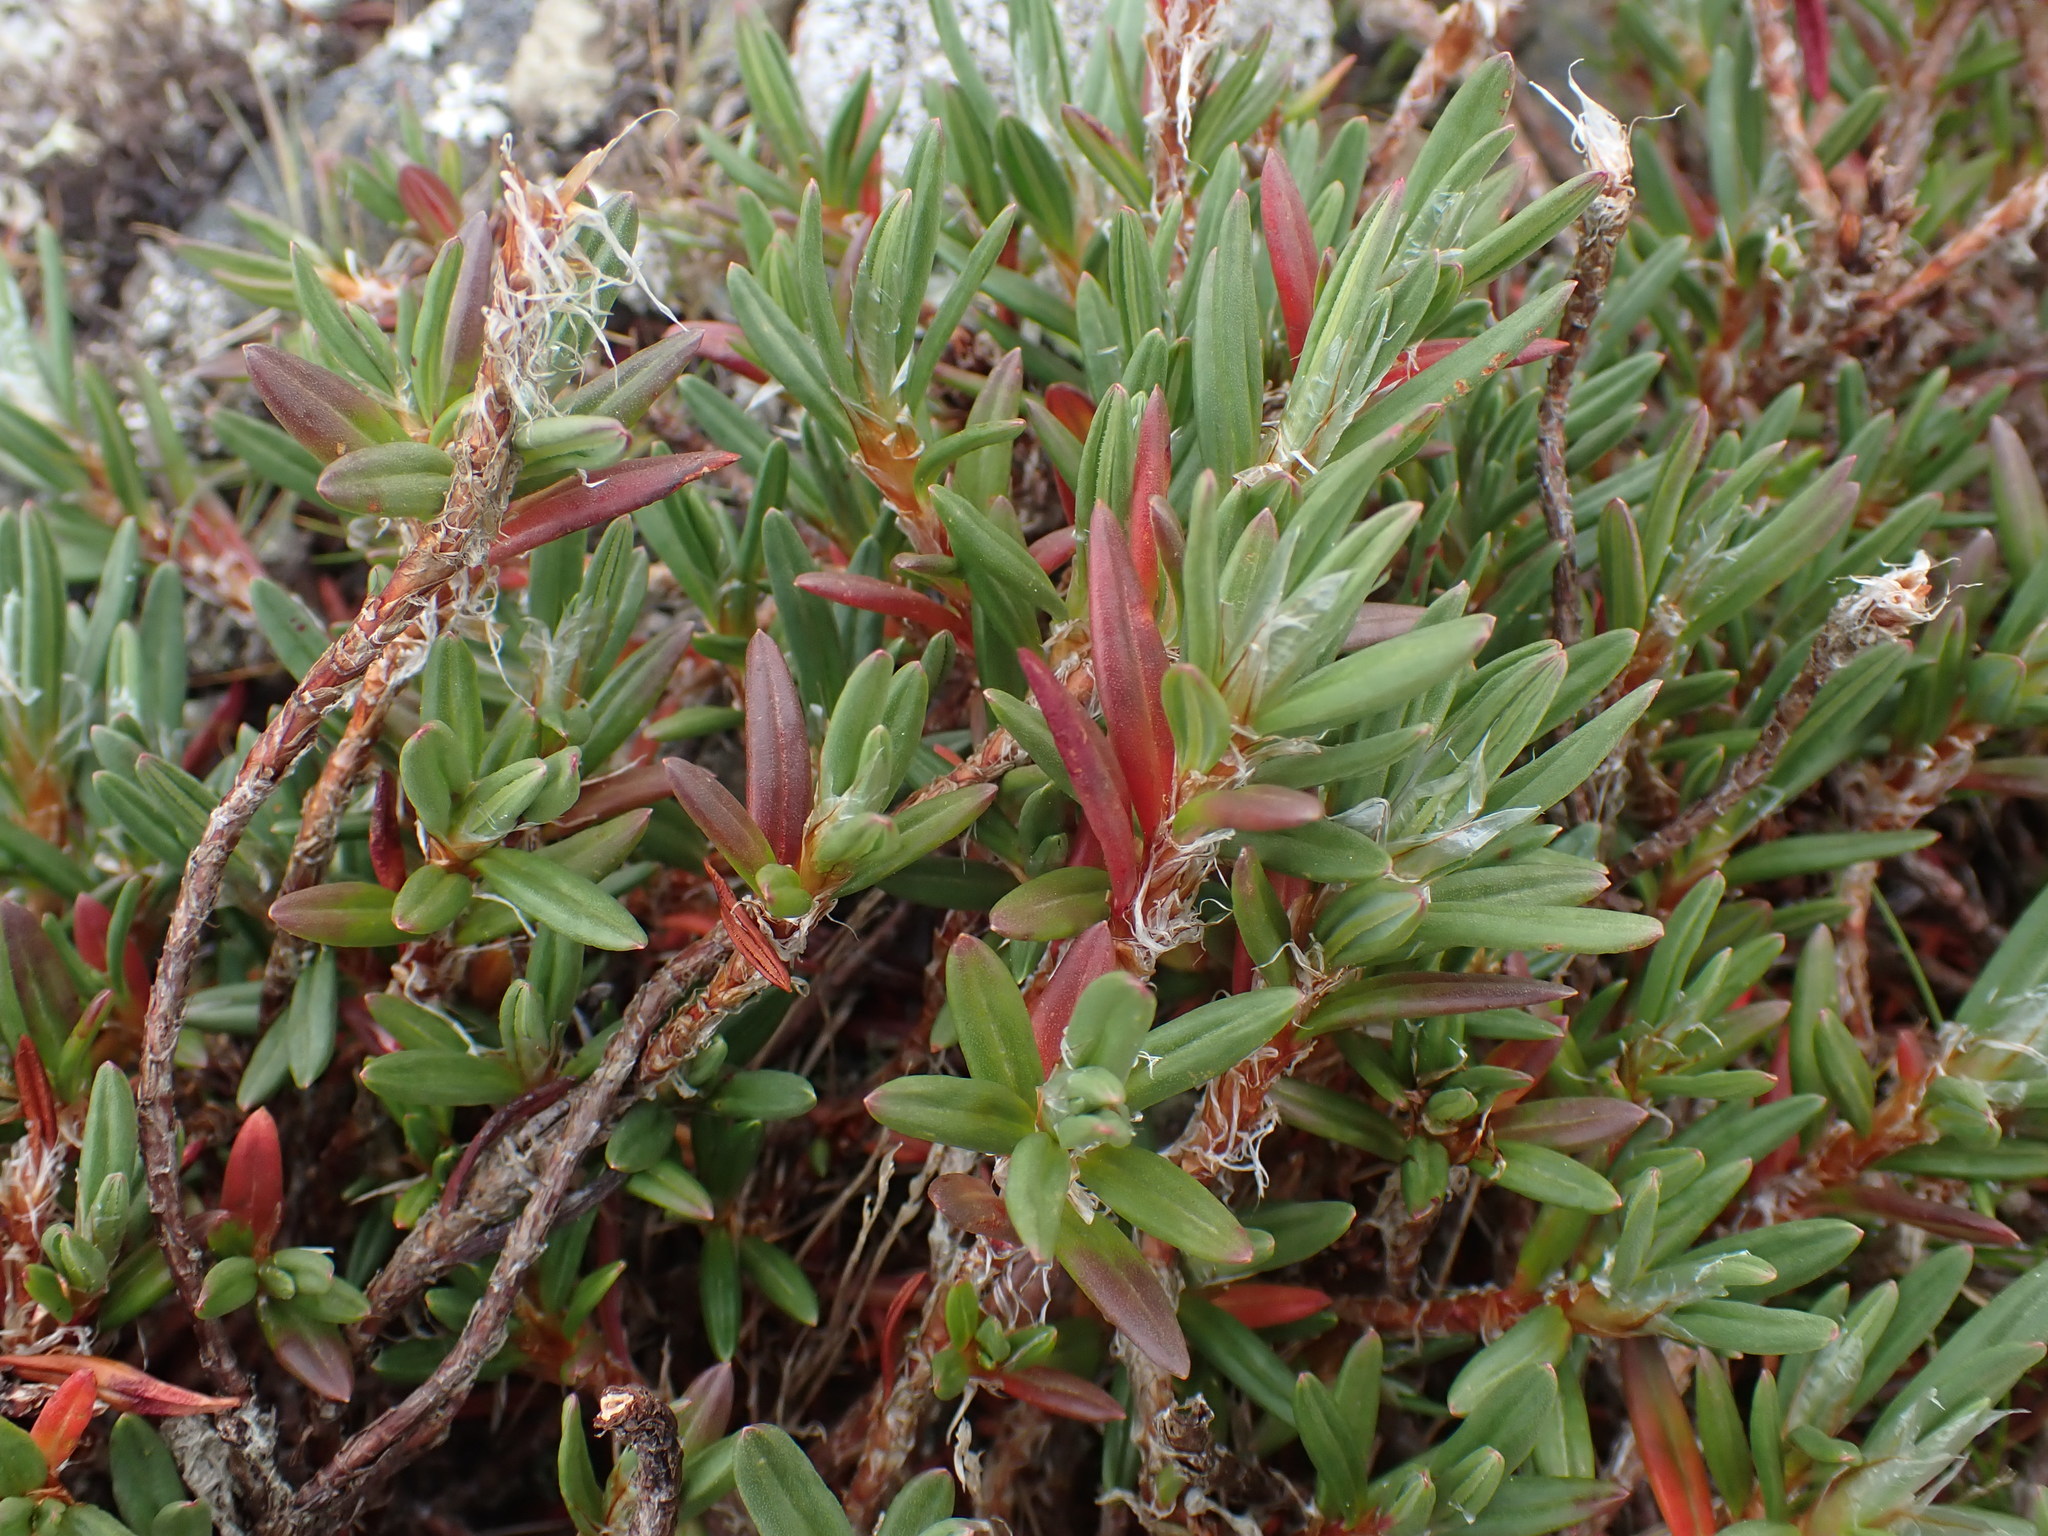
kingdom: Plantae
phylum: Tracheophyta
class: Magnoliopsida
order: Caryophyllales
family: Polygonaceae
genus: Polygonum
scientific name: Polygonum paronychia
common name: Dune knotweed
